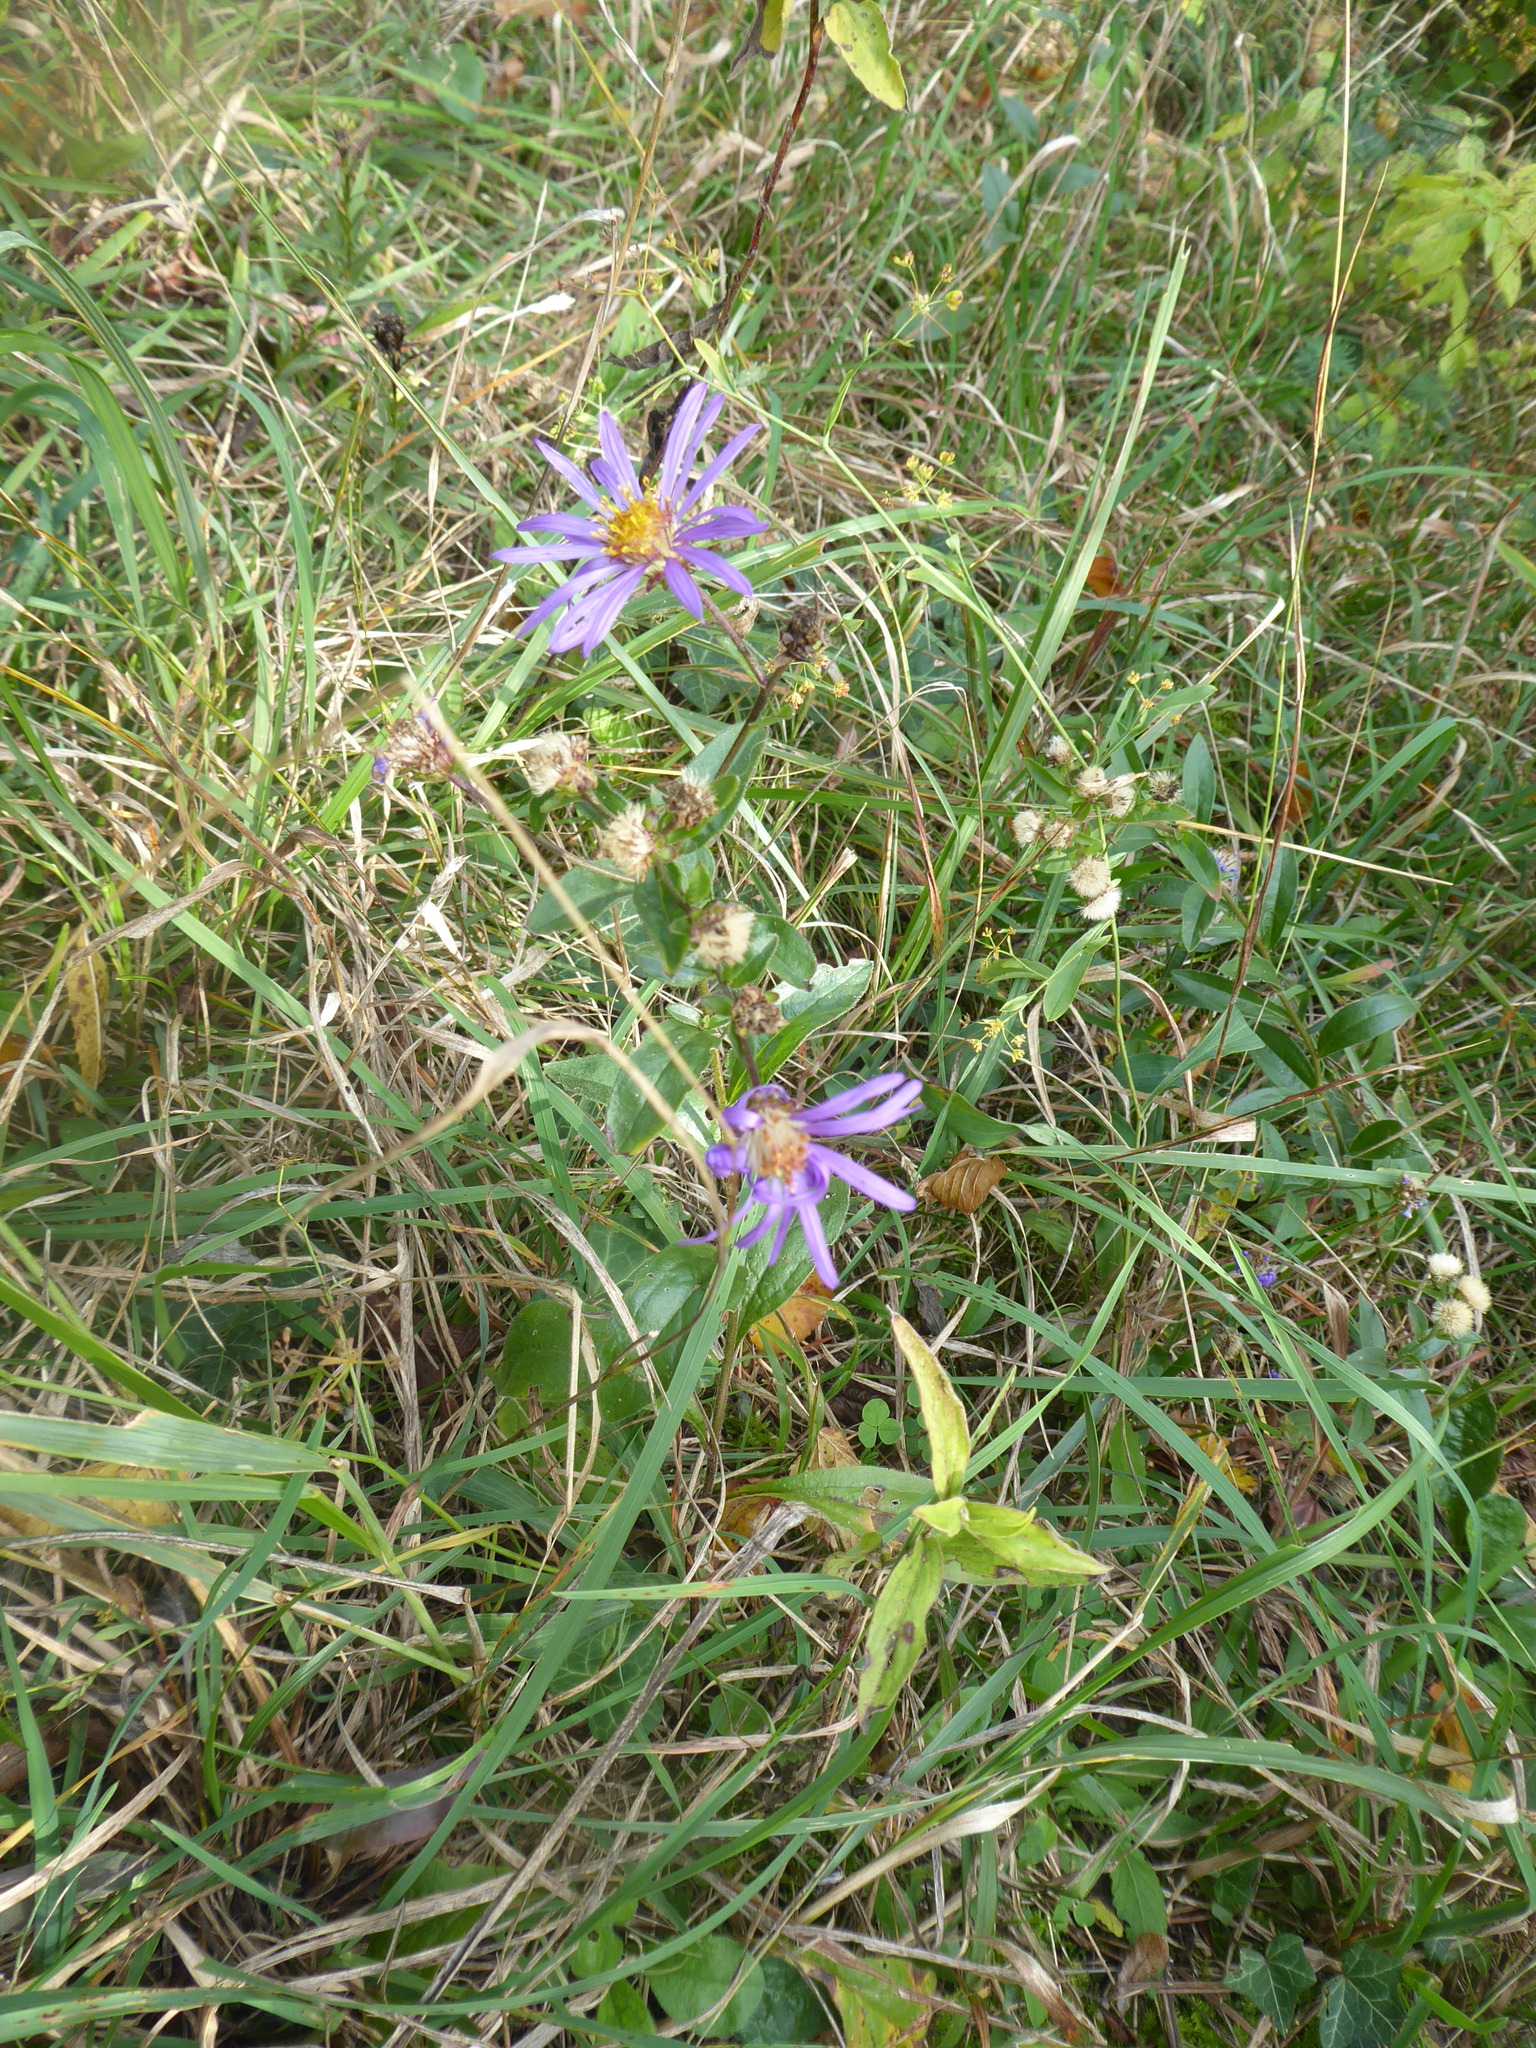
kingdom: Plantae
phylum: Tracheophyta
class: Magnoliopsida
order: Asterales
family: Asteraceae
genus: Aster
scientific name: Aster amellus
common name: European michaelmas daisy
